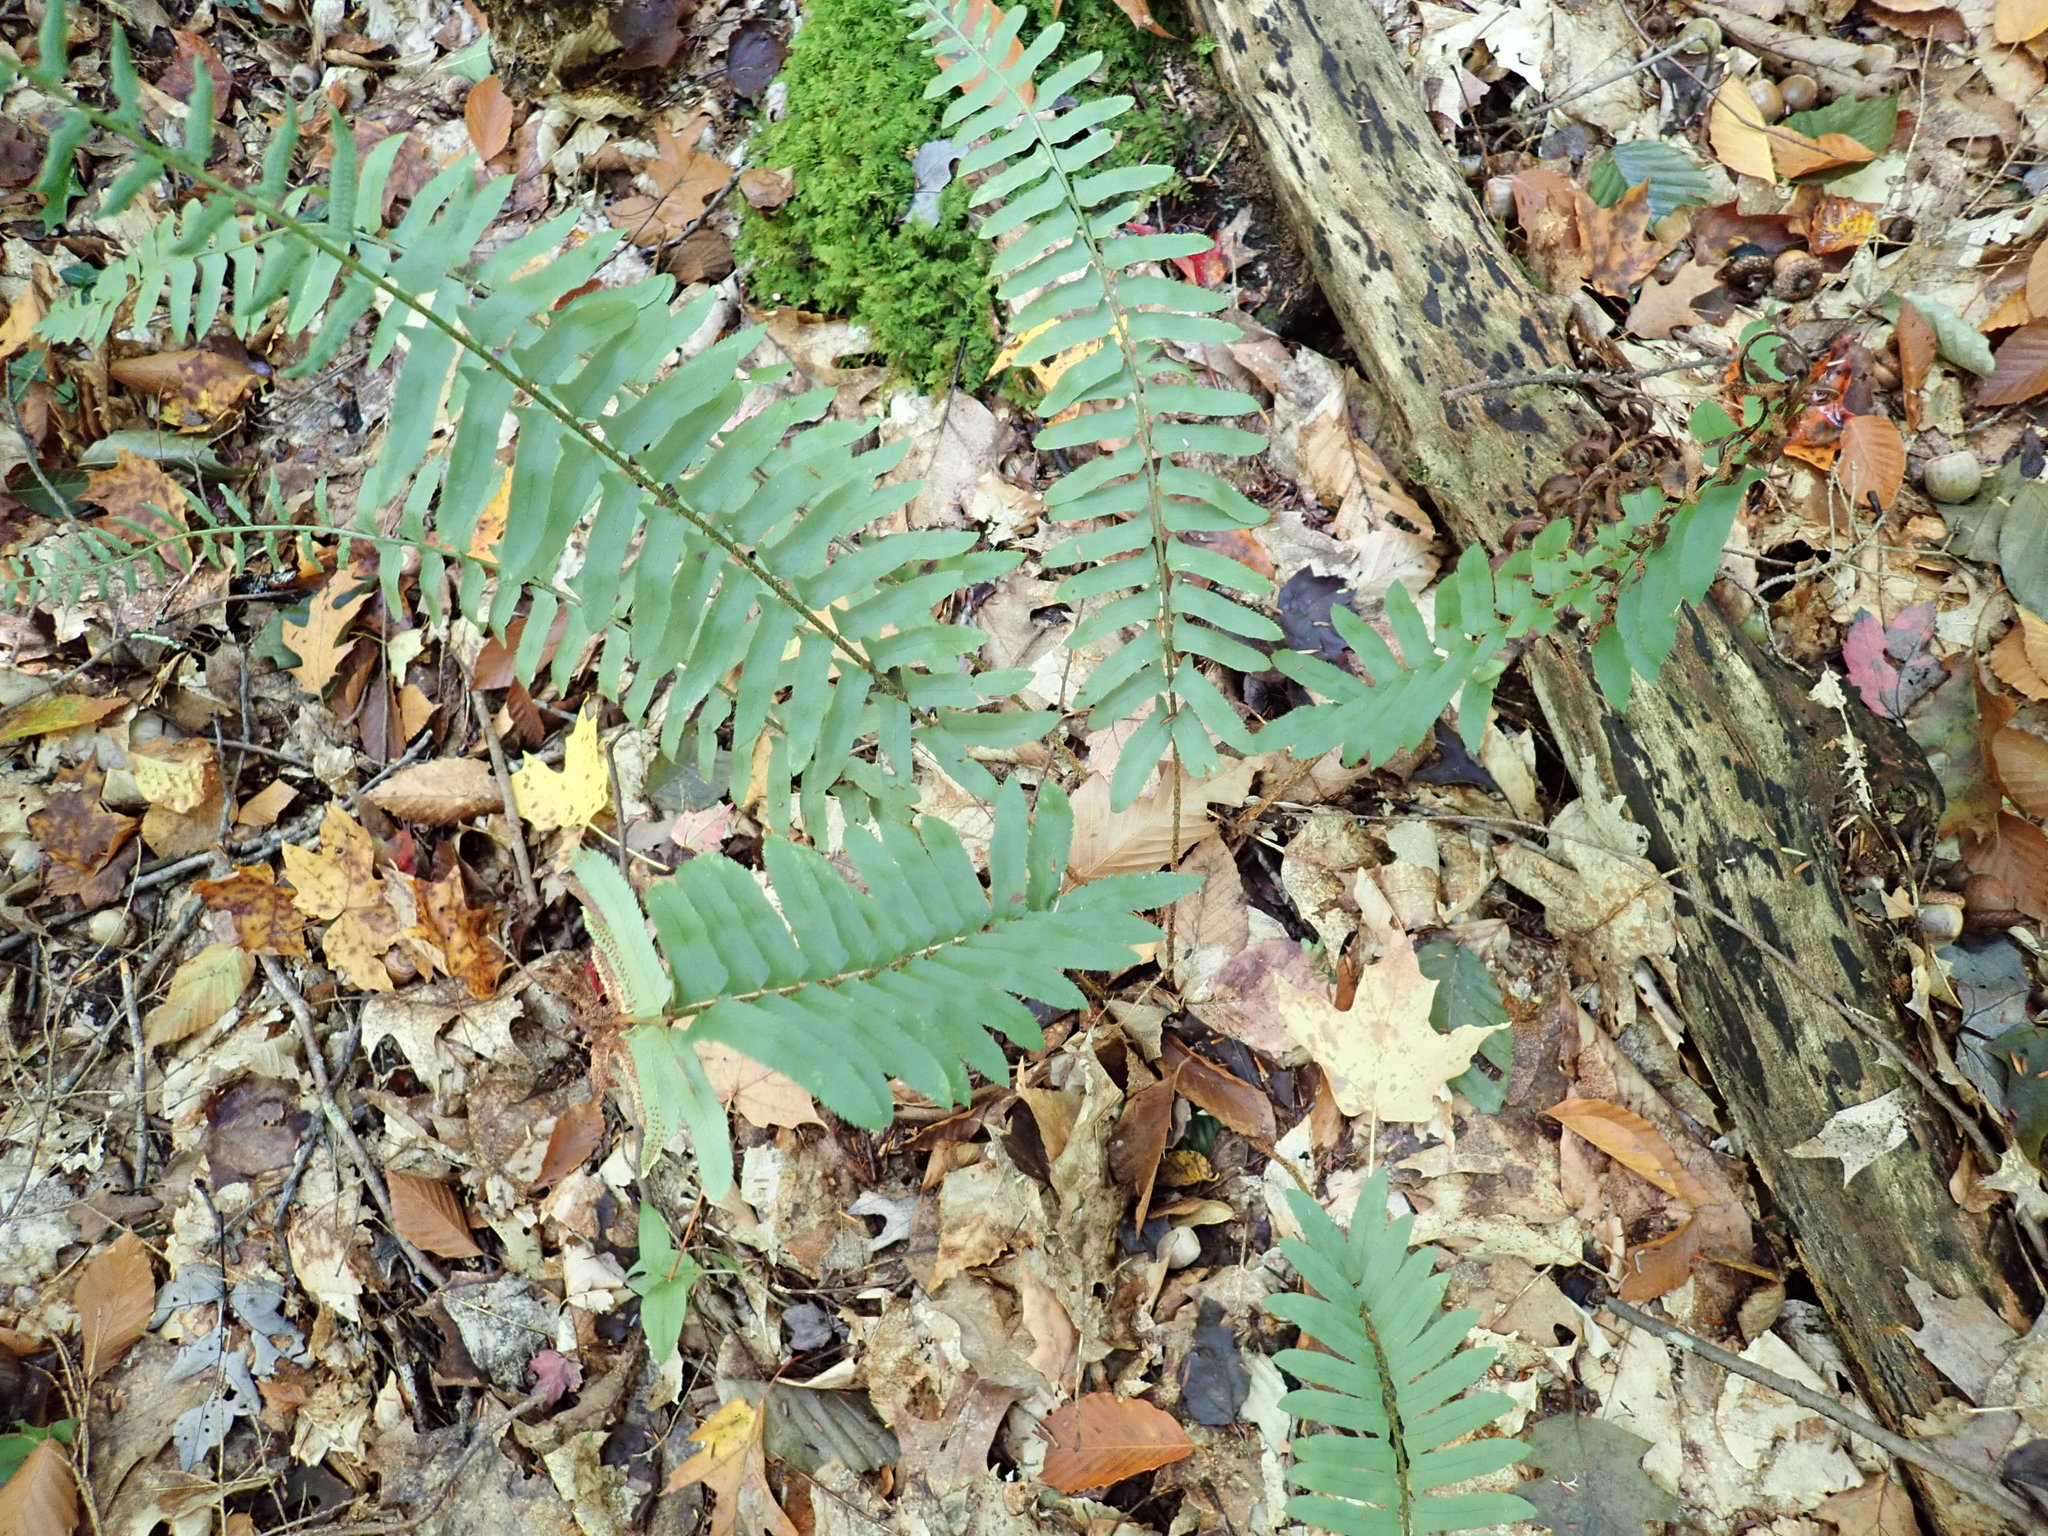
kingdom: Plantae
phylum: Tracheophyta
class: Polypodiopsida
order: Polypodiales
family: Dryopteridaceae
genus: Polystichum
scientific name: Polystichum acrostichoides
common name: Christmas fern
